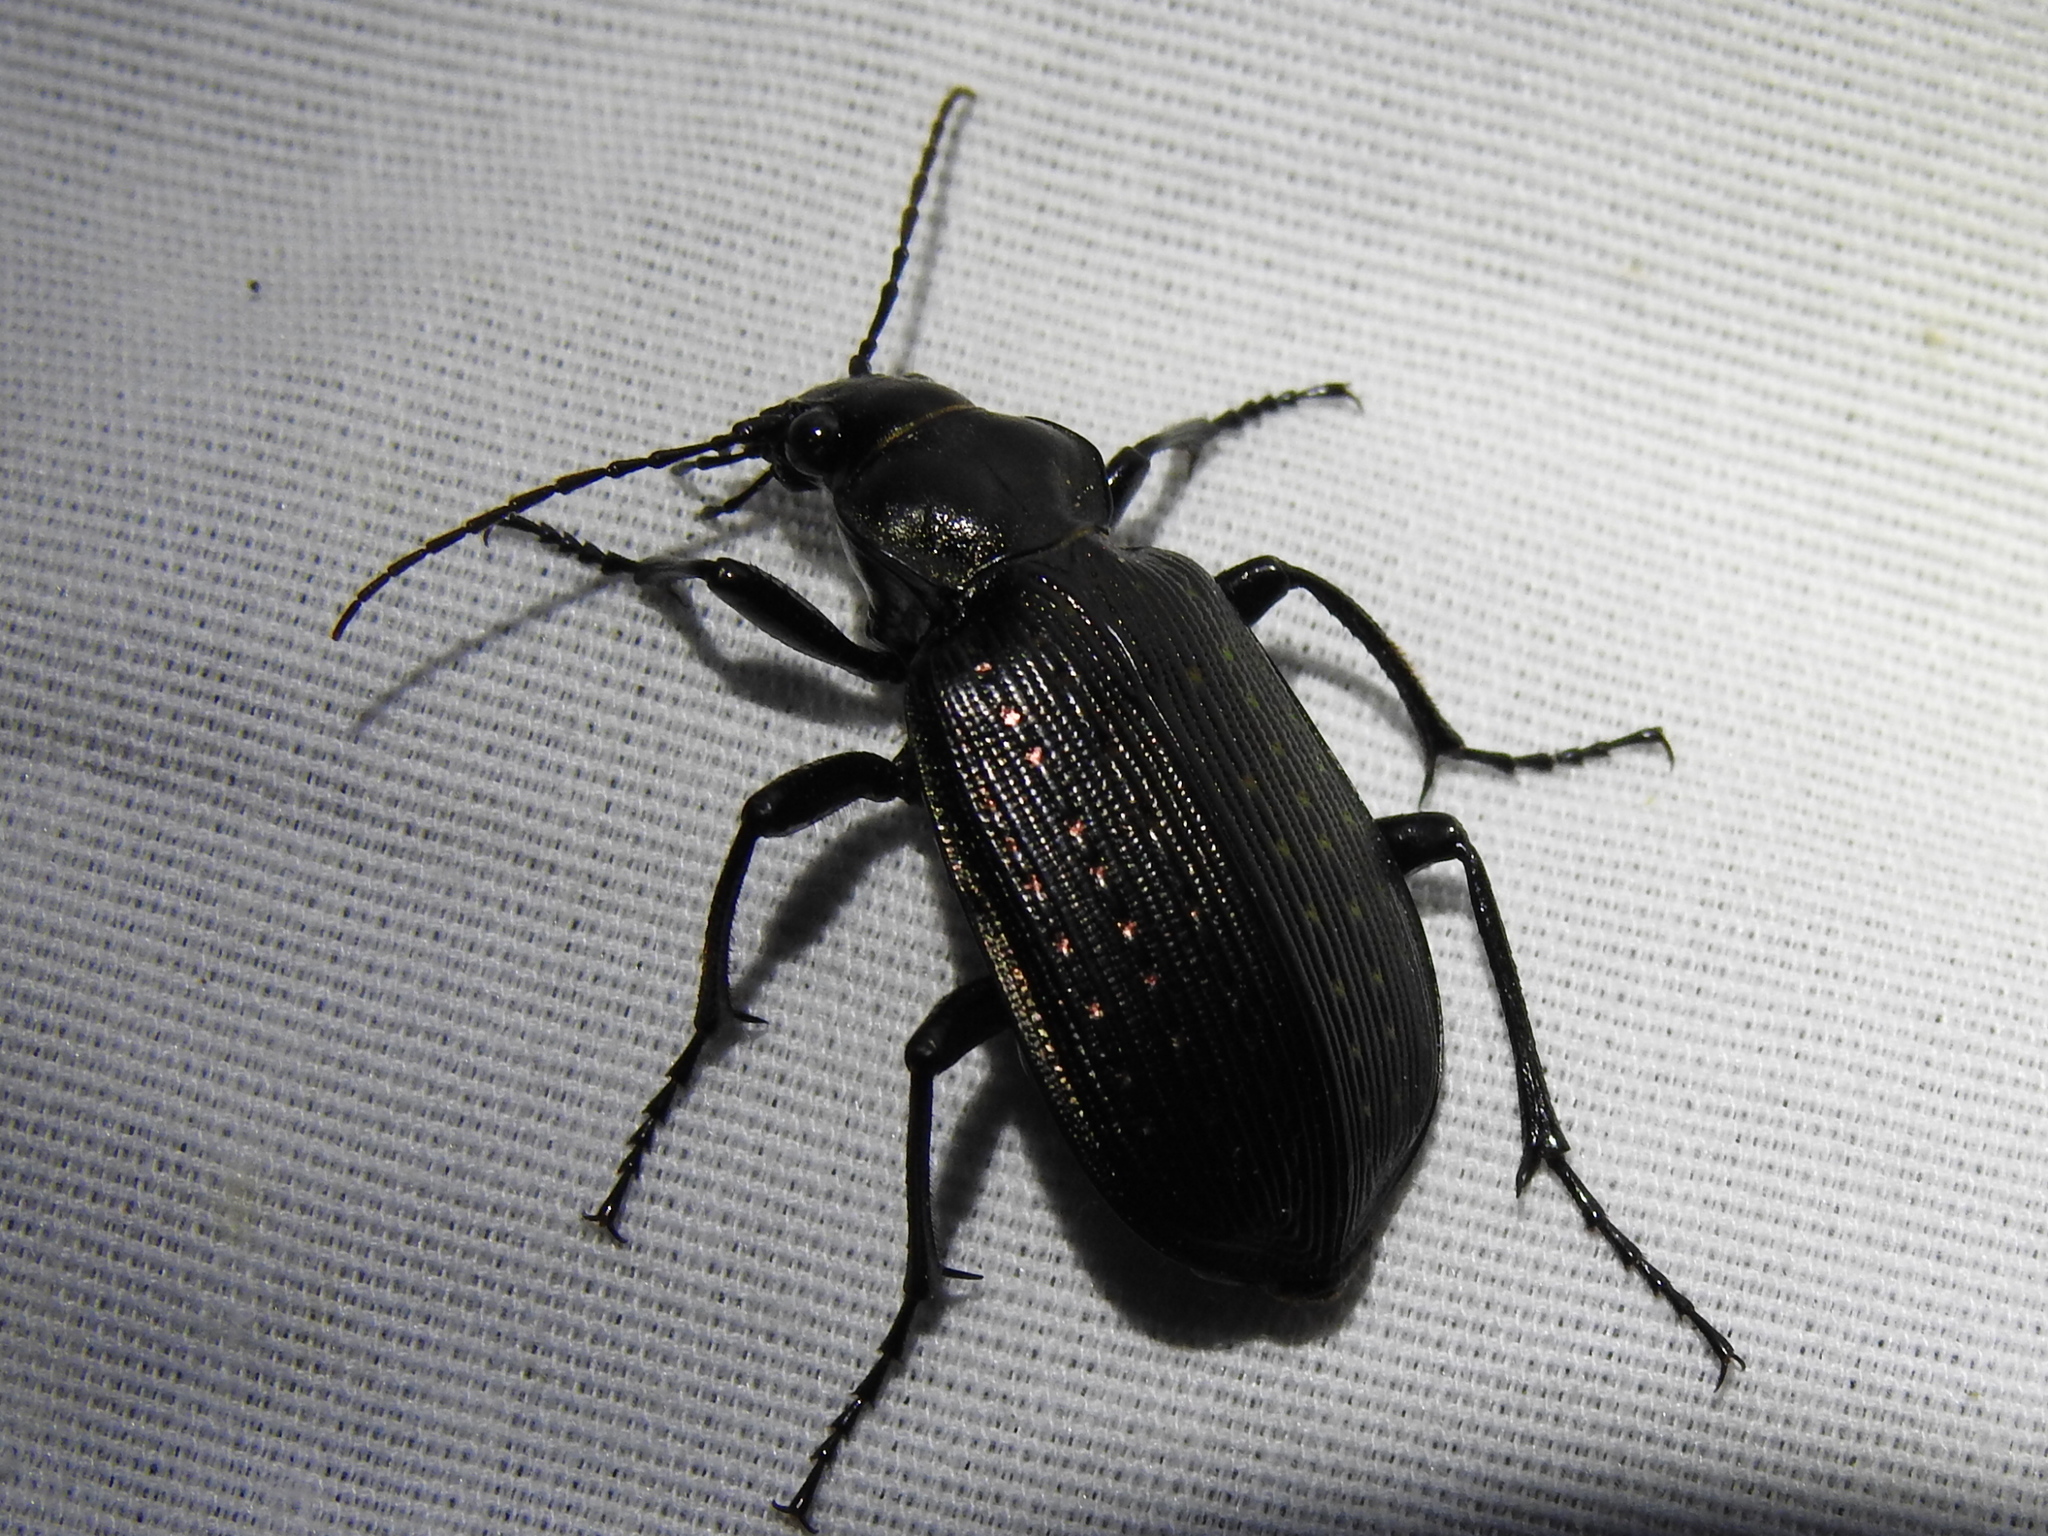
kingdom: Animalia
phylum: Arthropoda
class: Insecta
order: Coleoptera
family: Carabidae
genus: Calosoma
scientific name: Calosoma sayi
